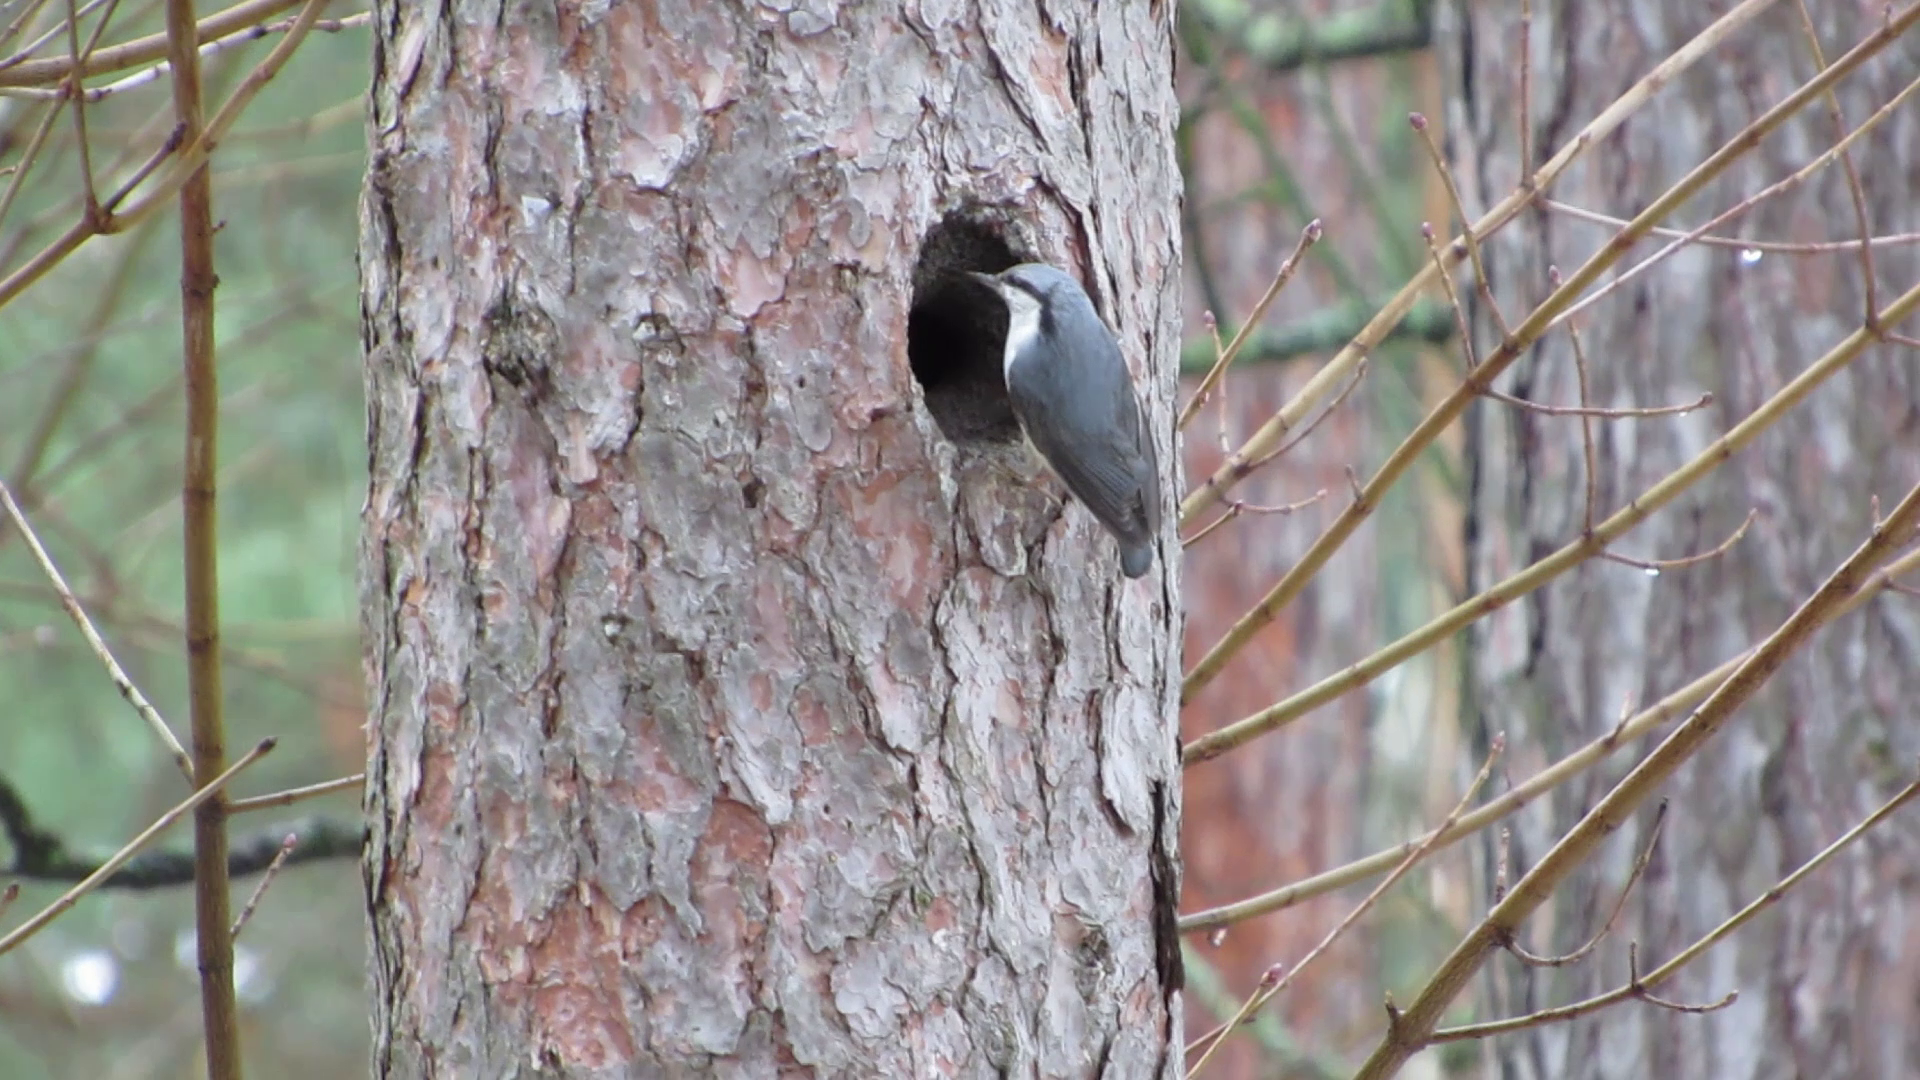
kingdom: Animalia
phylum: Chordata
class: Aves
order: Passeriformes
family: Sittidae
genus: Sitta
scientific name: Sitta europaea
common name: Eurasian nuthatch
